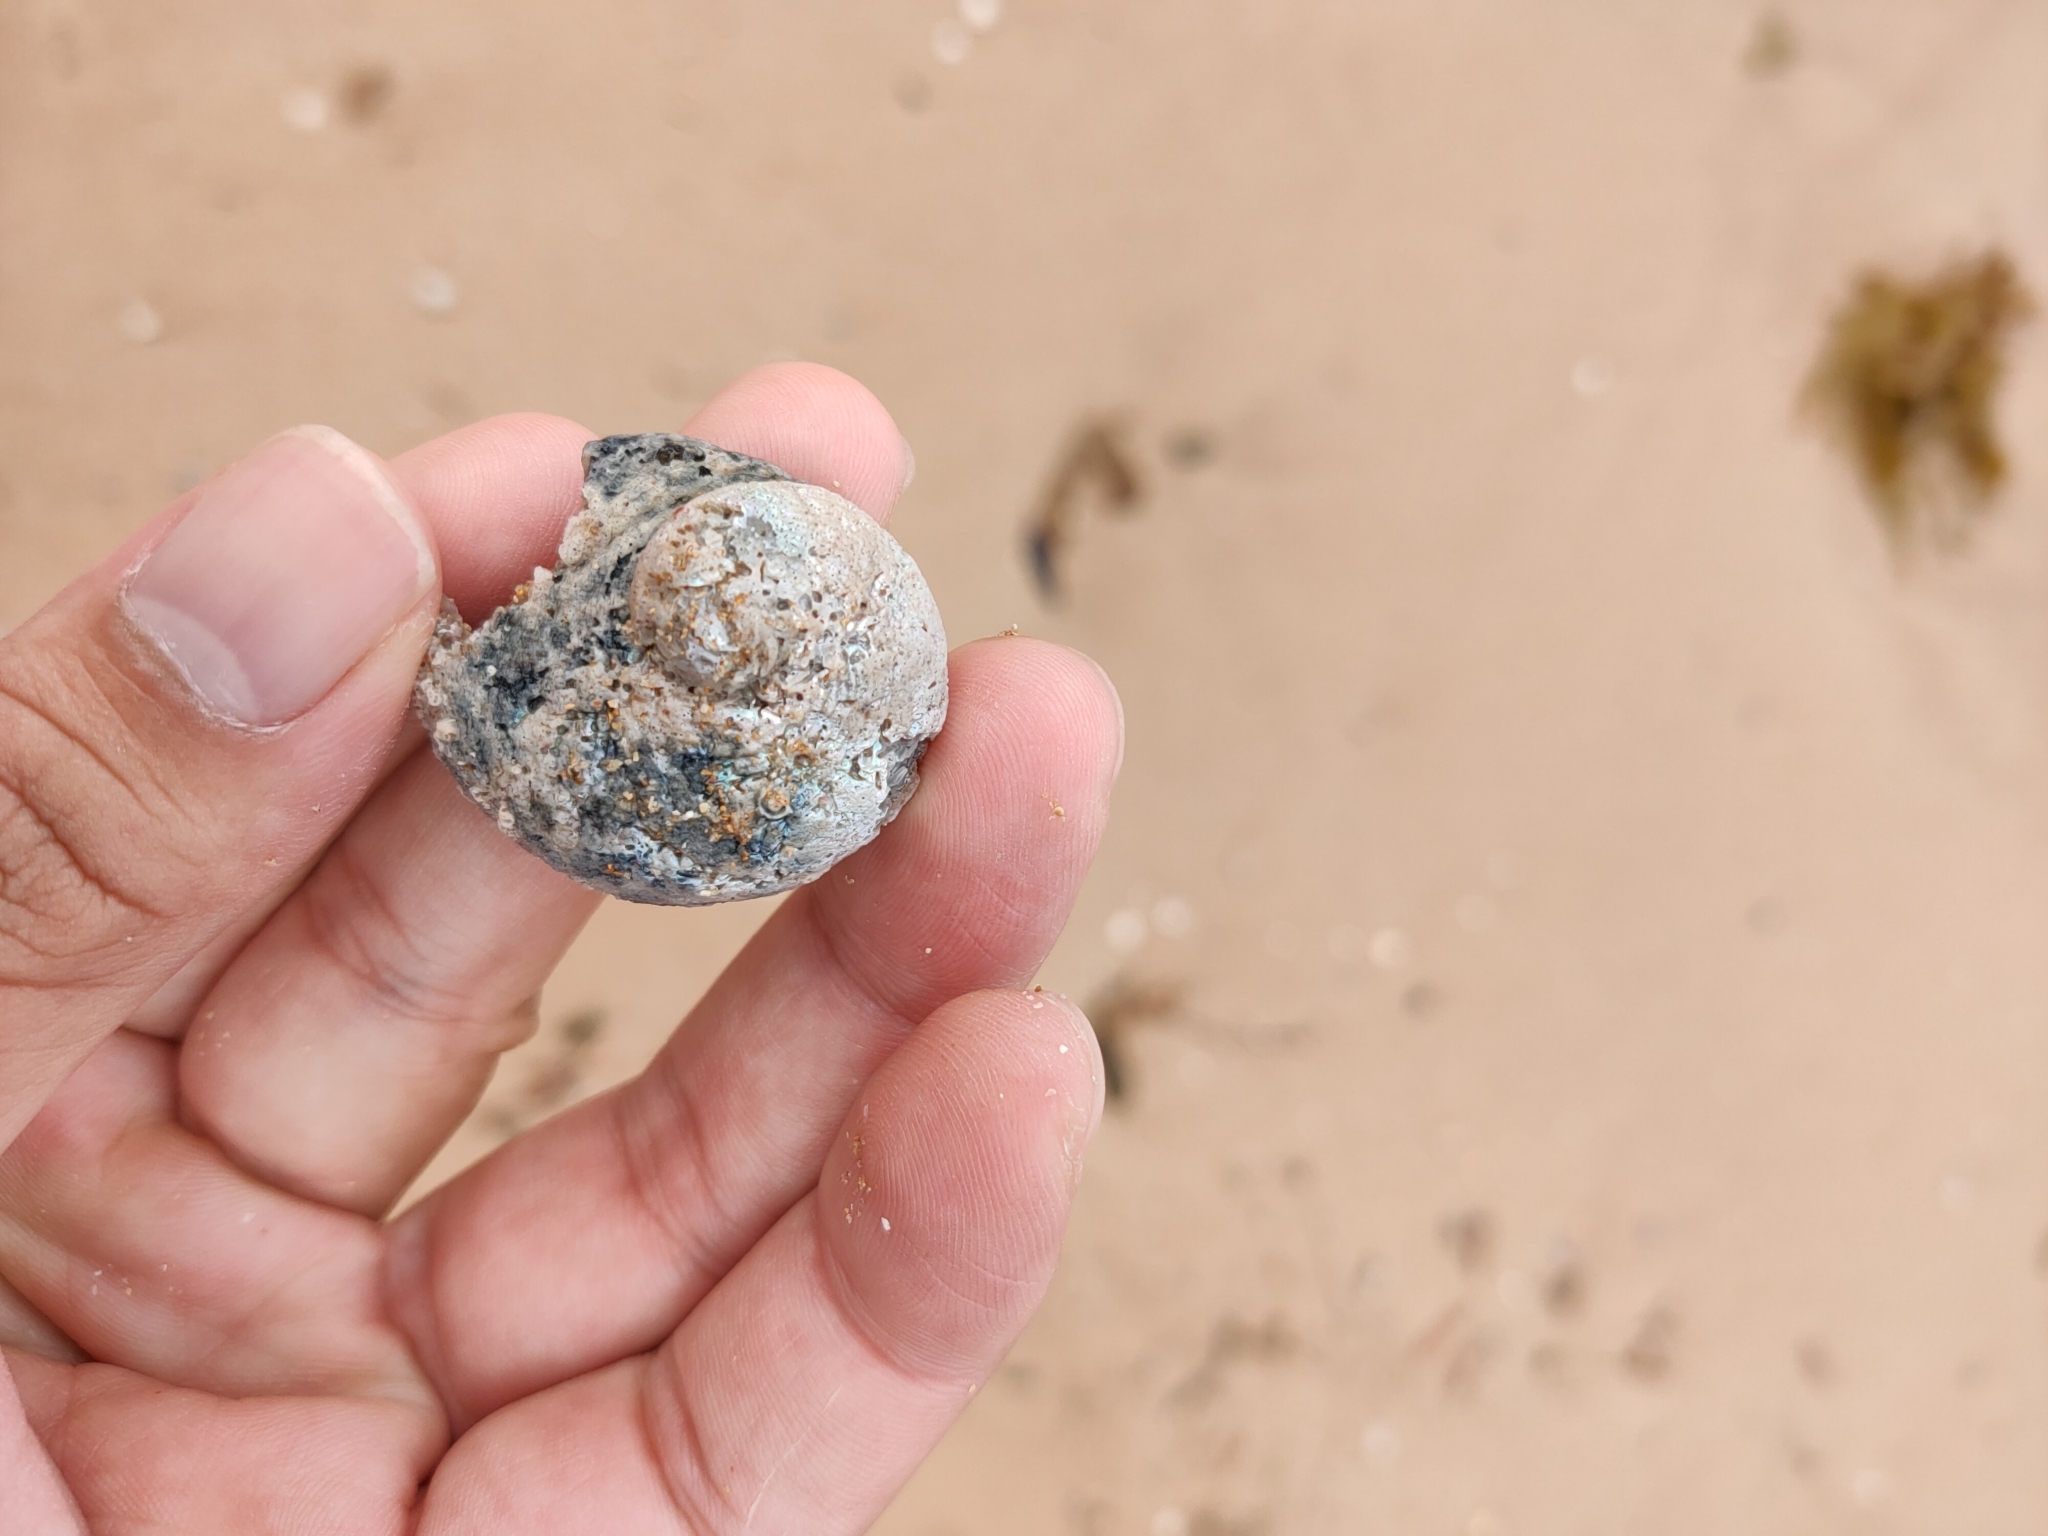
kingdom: Animalia
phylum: Mollusca
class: Gastropoda
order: Seguenziida
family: Chilodontaidae
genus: Granata
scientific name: Granata imbricata
